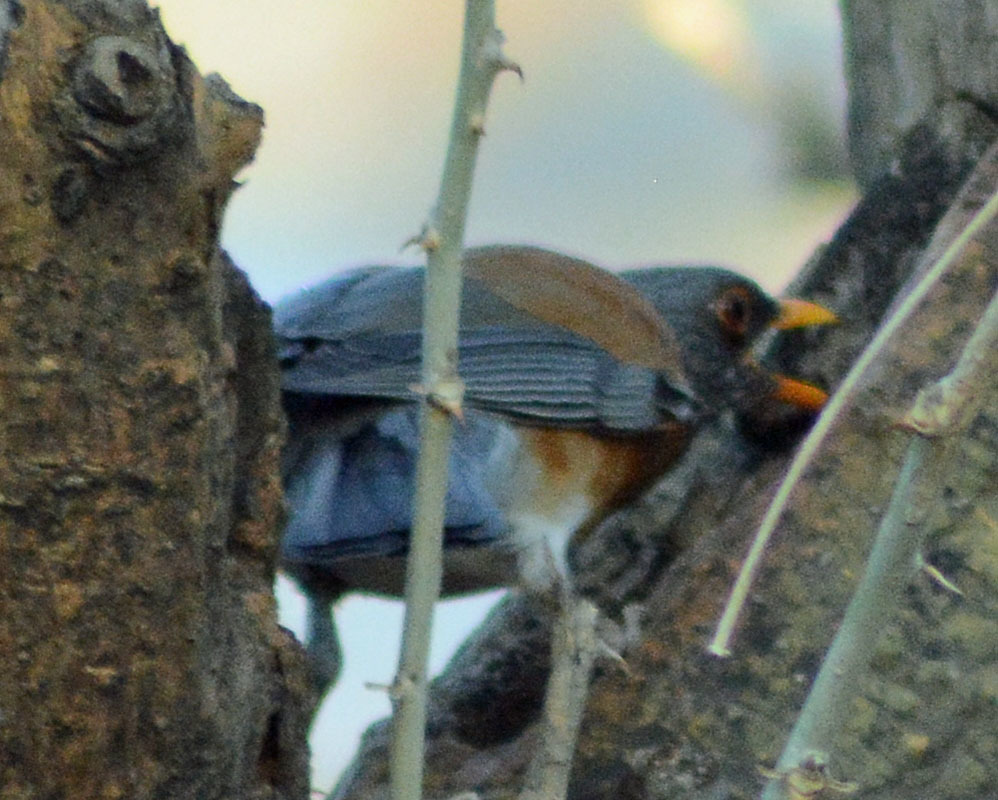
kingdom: Animalia
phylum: Chordata
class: Aves
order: Passeriformes
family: Turdidae
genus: Turdus
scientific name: Turdus rufopalliatus
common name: Rufous-backed robin
